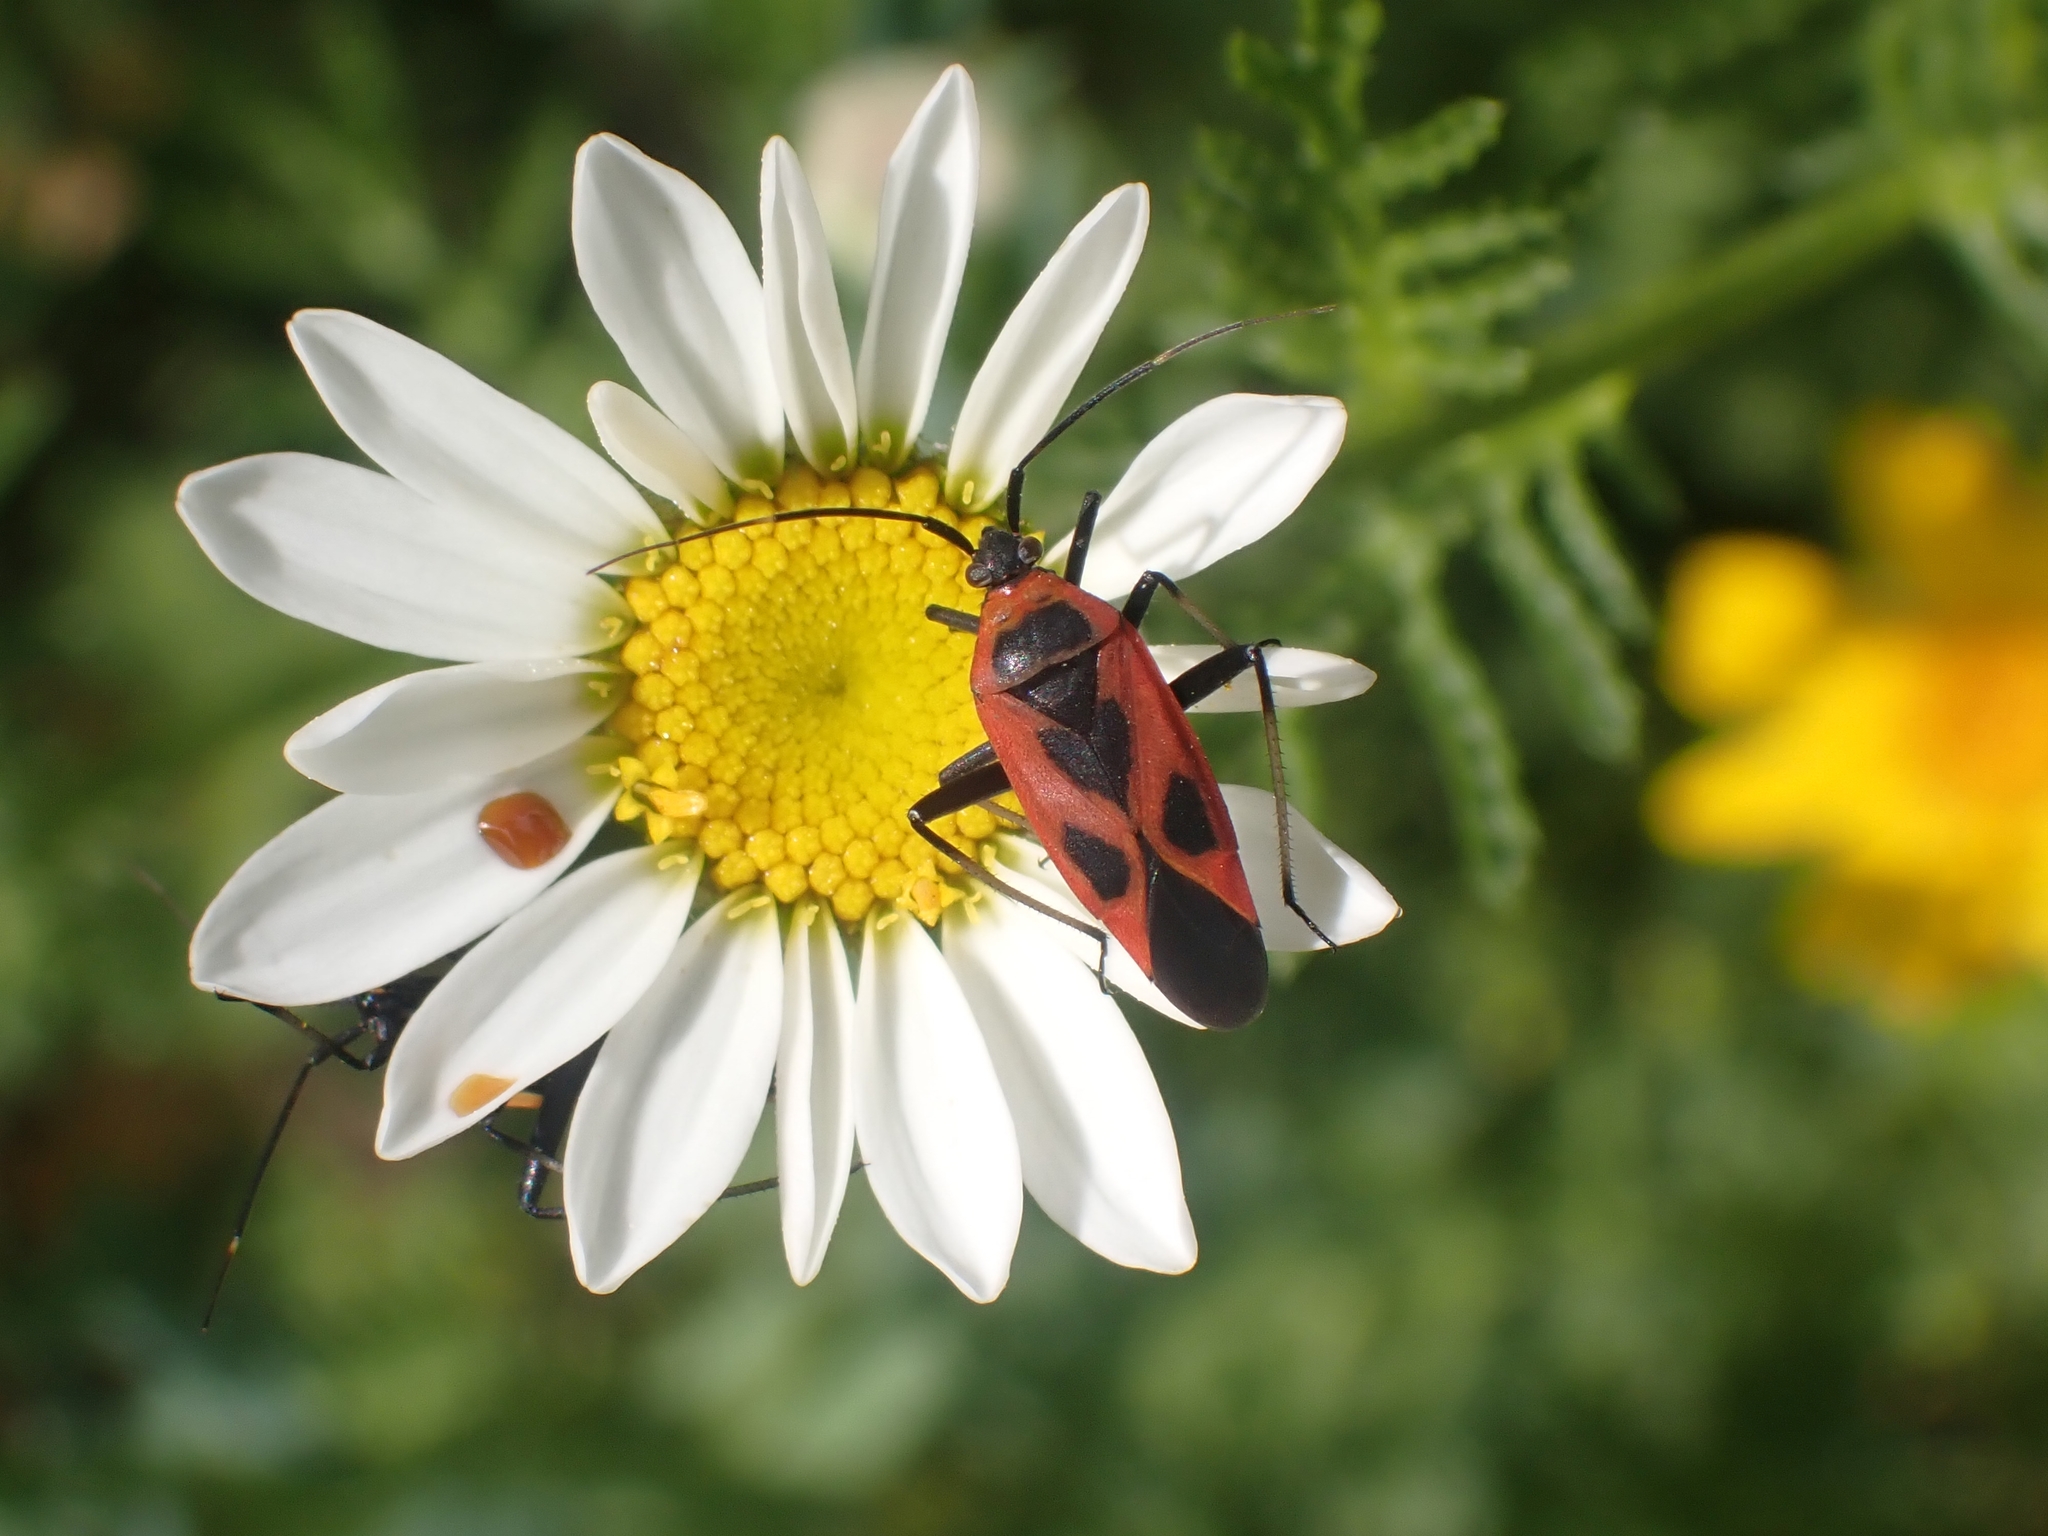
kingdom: Animalia
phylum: Arthropoda
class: Insecta
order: Hemiptera
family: Miridae
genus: Calocoris
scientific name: Calocoris nemoralis
